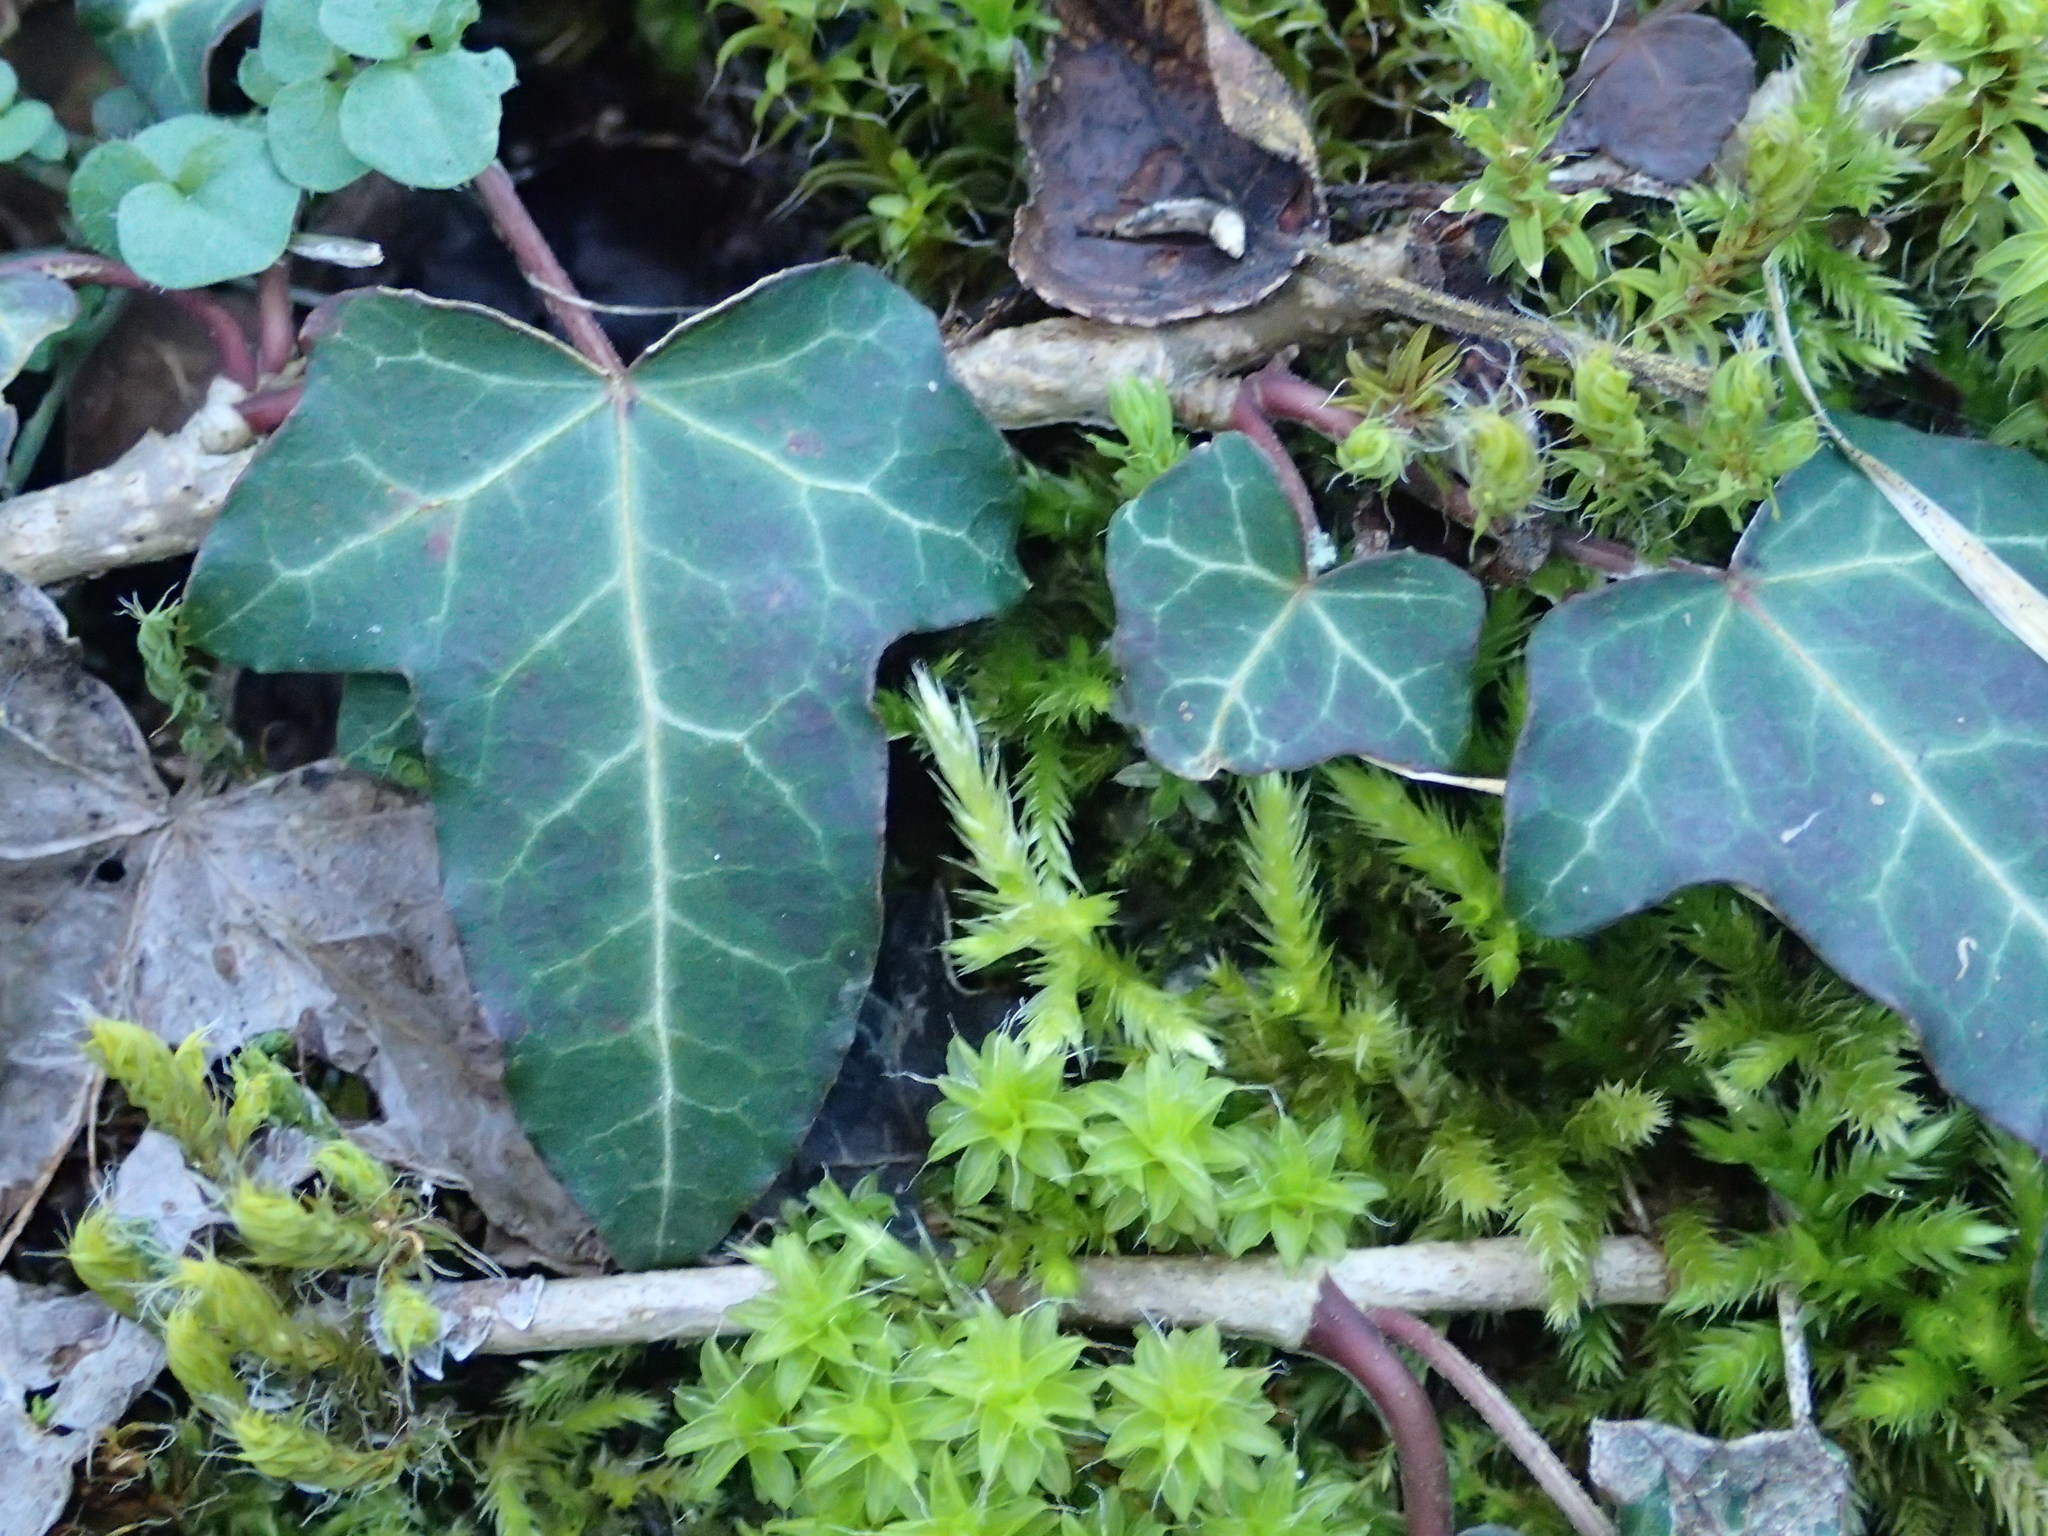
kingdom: Plantae
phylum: Tracheophyta
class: Magnoliopsida
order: Apiales
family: Araliaceae
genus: Hedera
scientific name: Hedera helix
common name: Ivy
